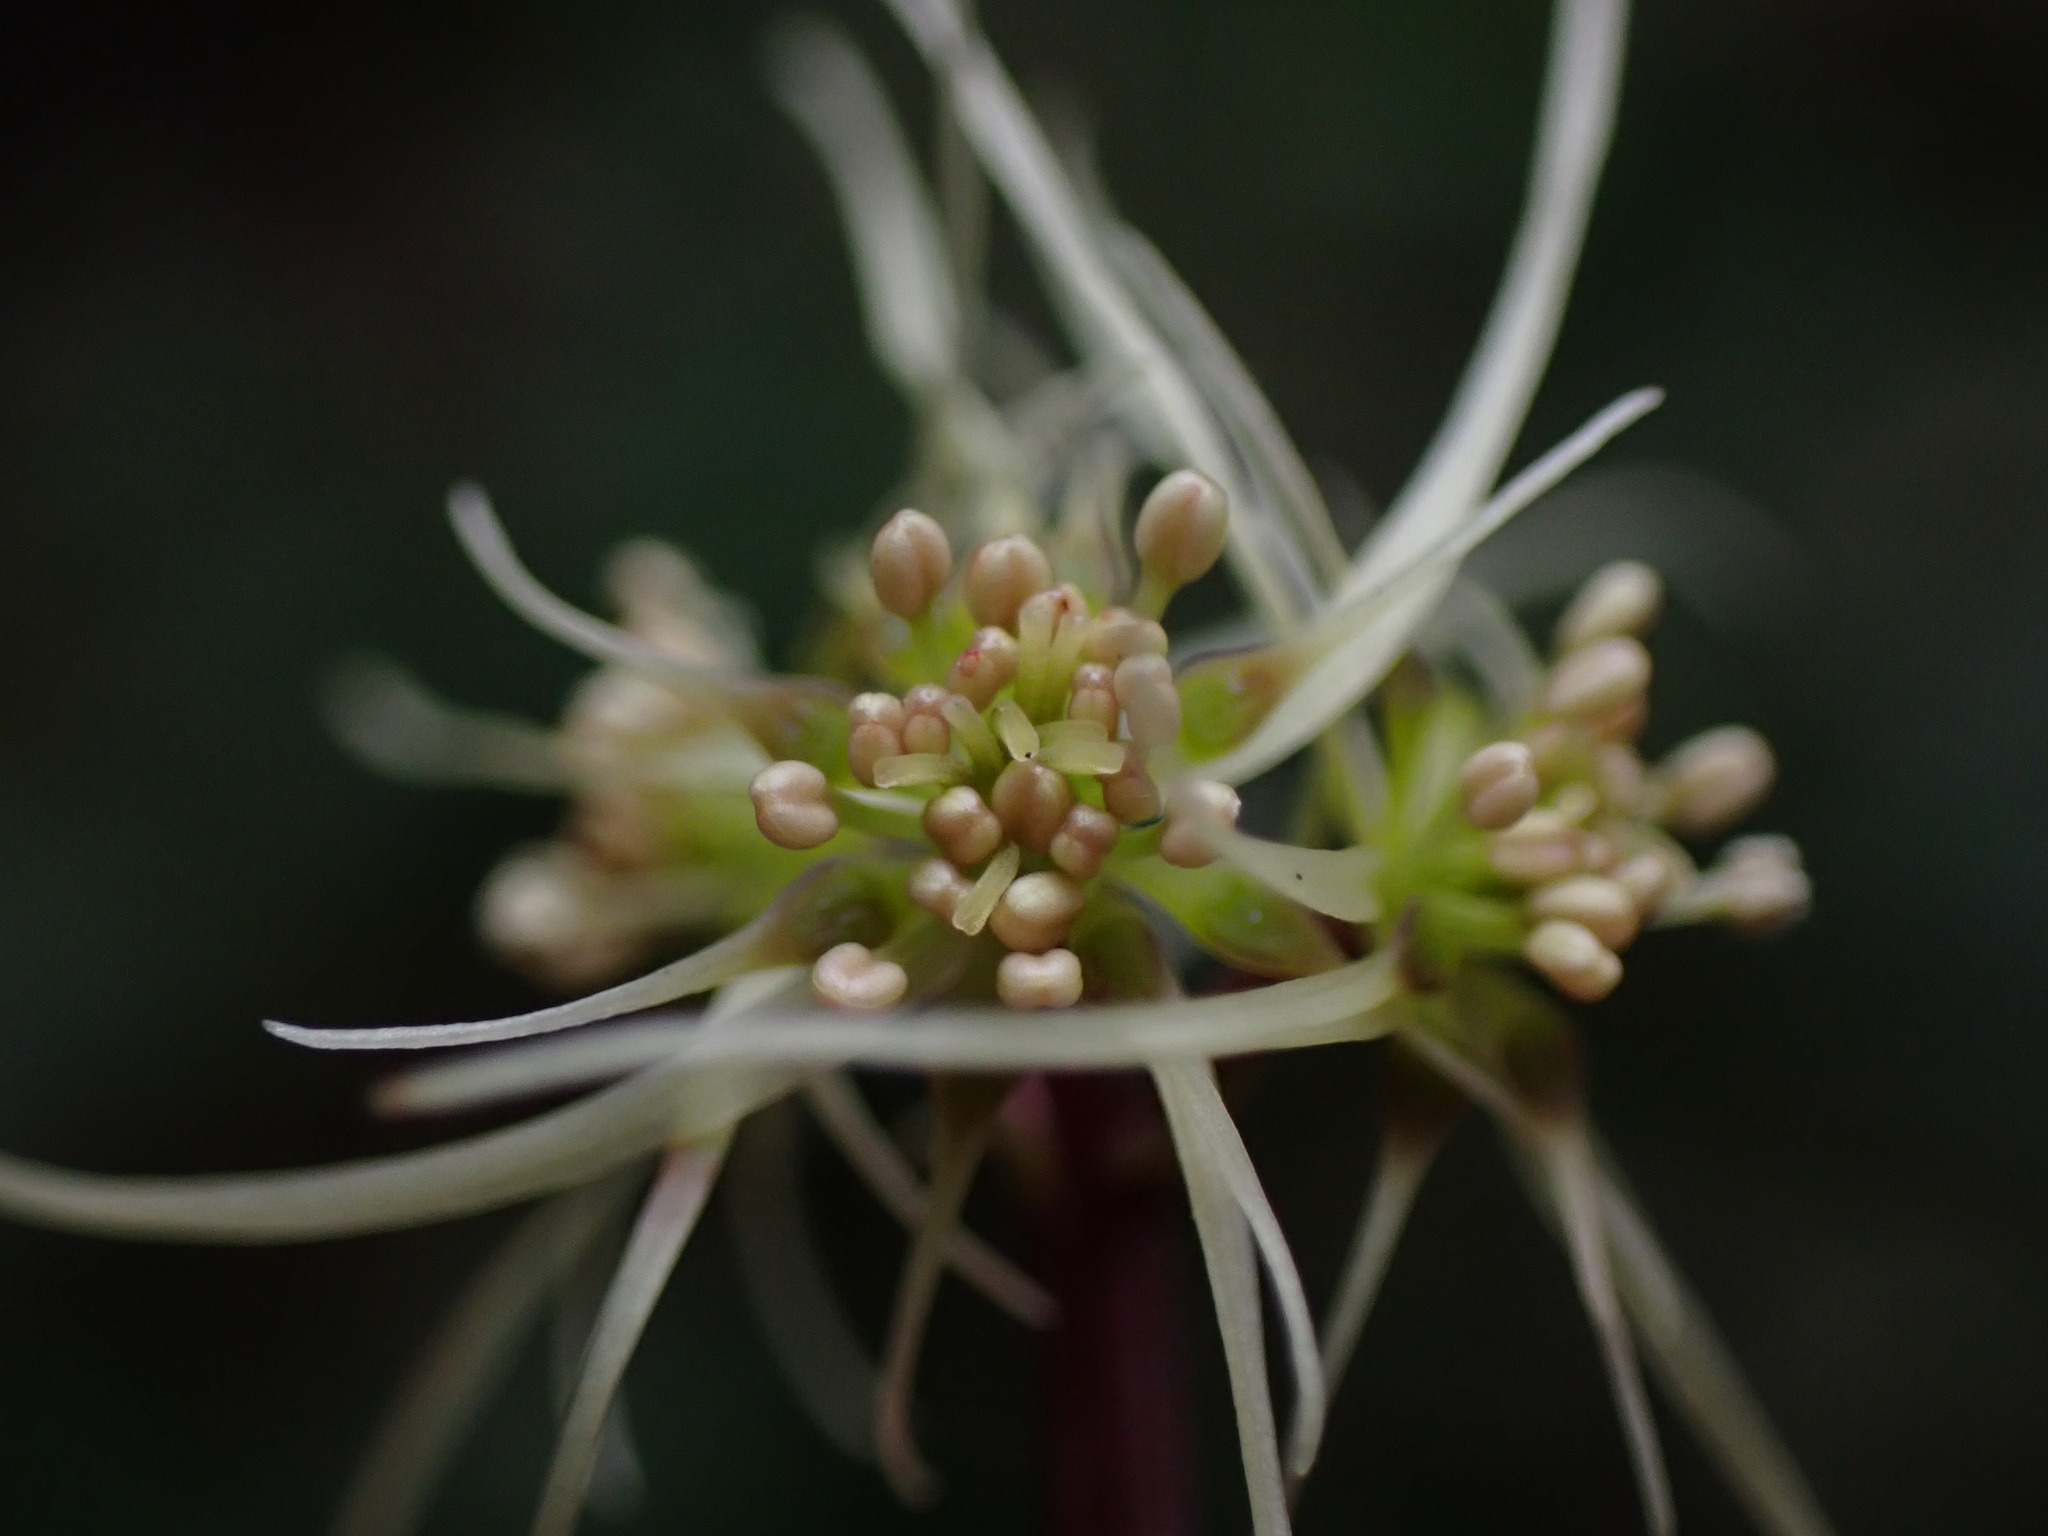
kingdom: Plantae
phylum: Tracheophyta
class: Magnoliopsida
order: Ranunculales
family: Ranunculaceae
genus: Coptis
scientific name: Coptis aspleniifolia
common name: Fern-leaved goldthread
